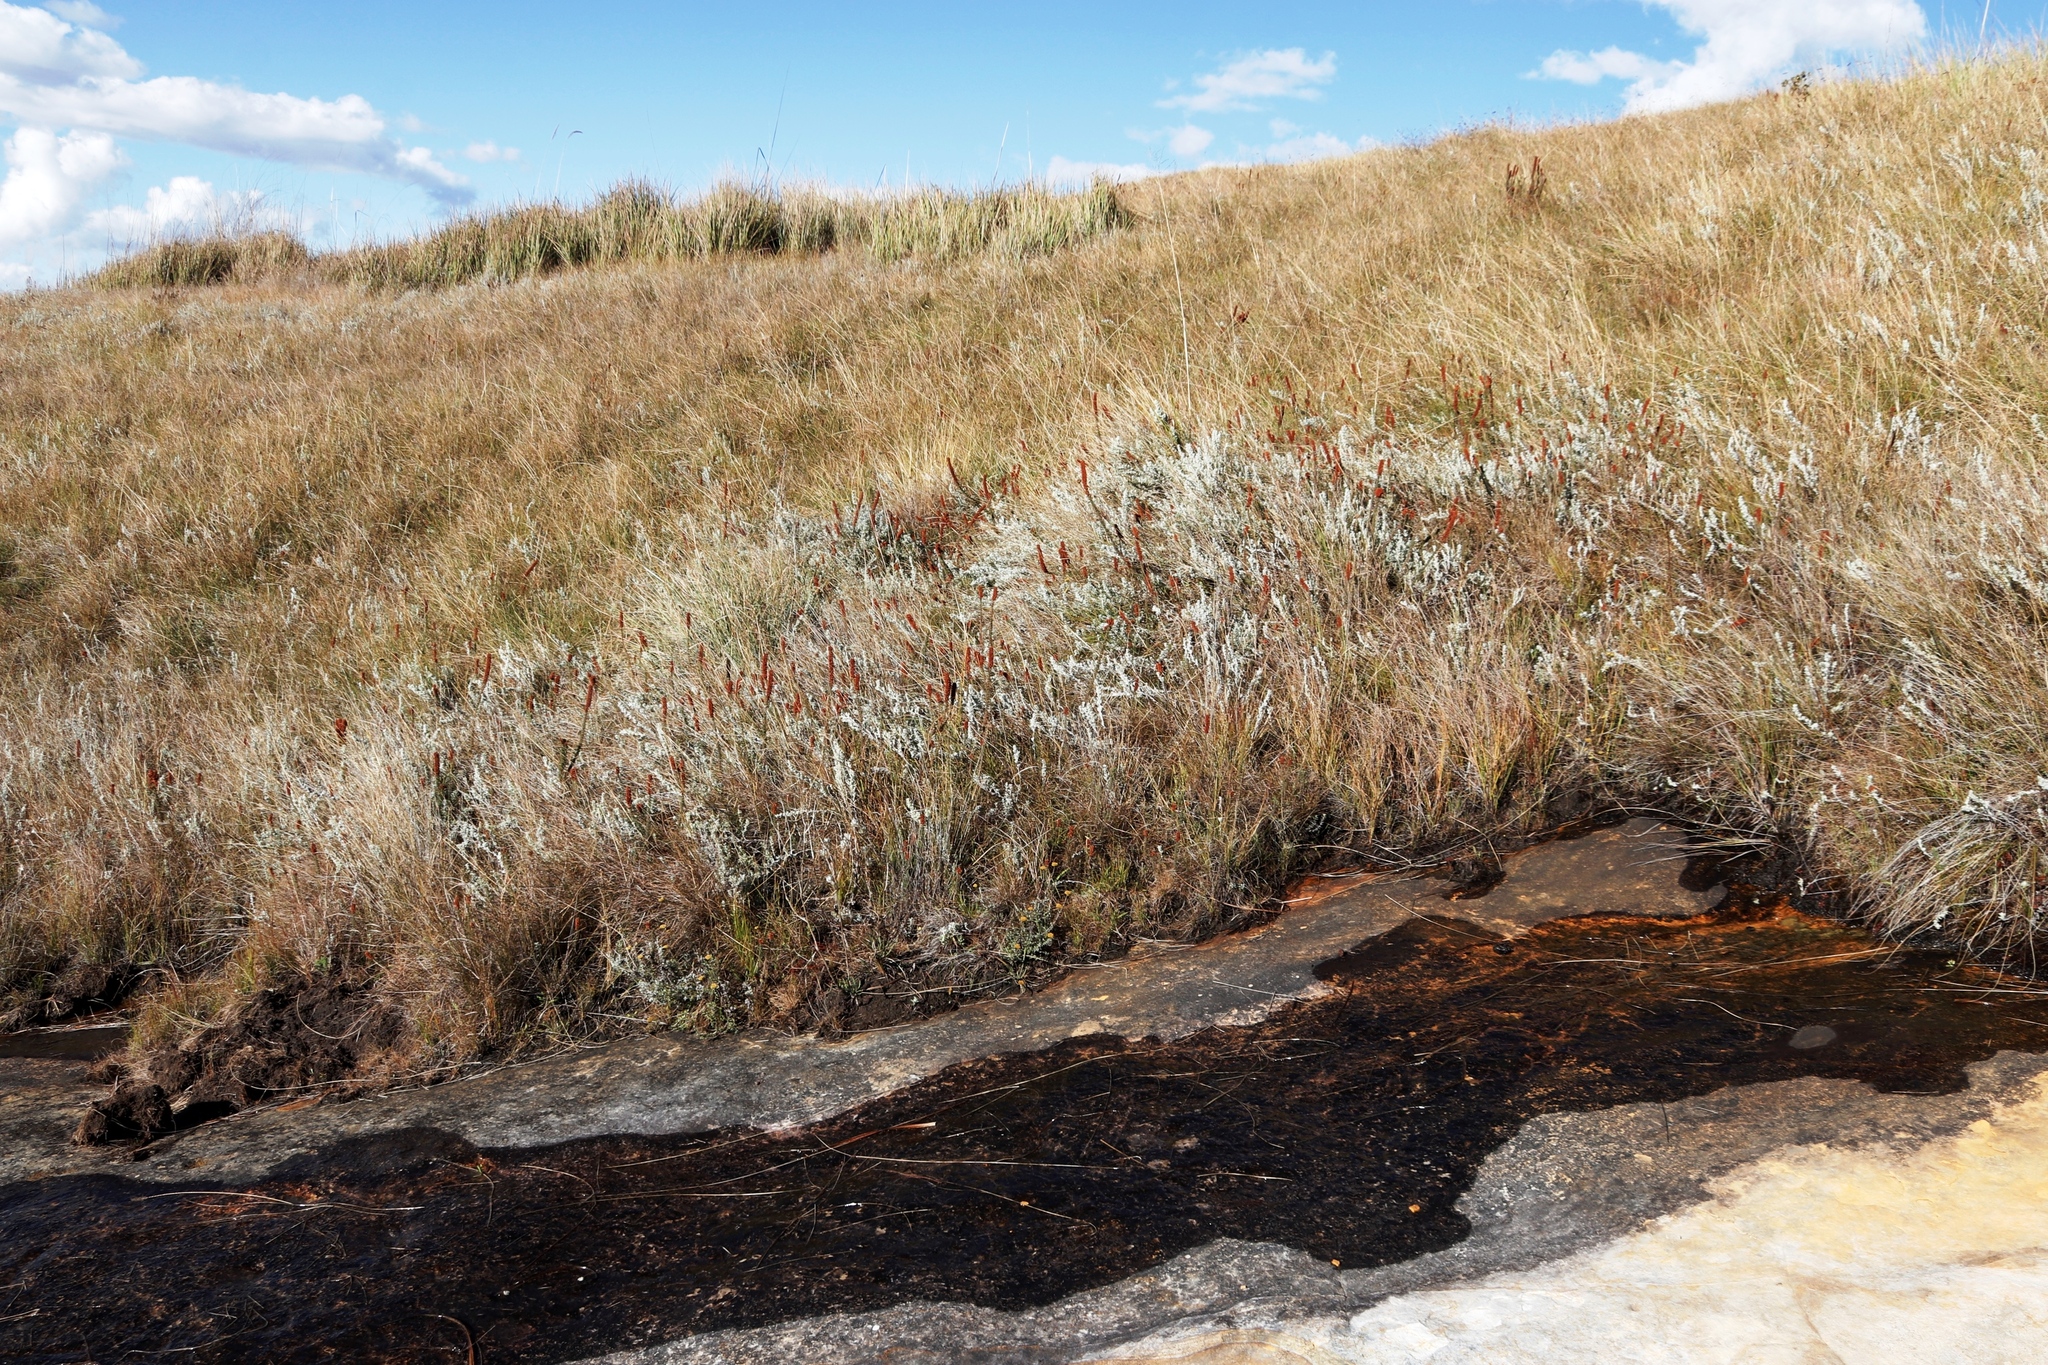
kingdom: Plantae
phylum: Tracheophyta
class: Magnoliopsida
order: Ericales
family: Ericaceae
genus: Erica
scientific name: Erica alopecurus
